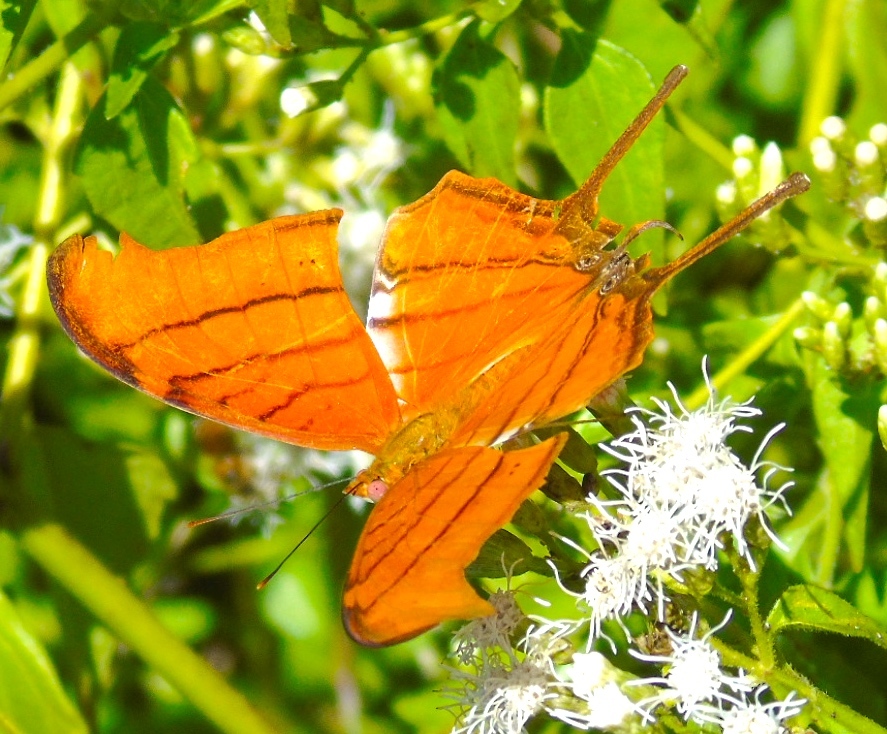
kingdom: Animalia
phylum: Arthropoda
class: Insecta
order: Lepidoptera
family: Nymphalidae
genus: Marpesia
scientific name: Marpesia petreus
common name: Red dagger wing
